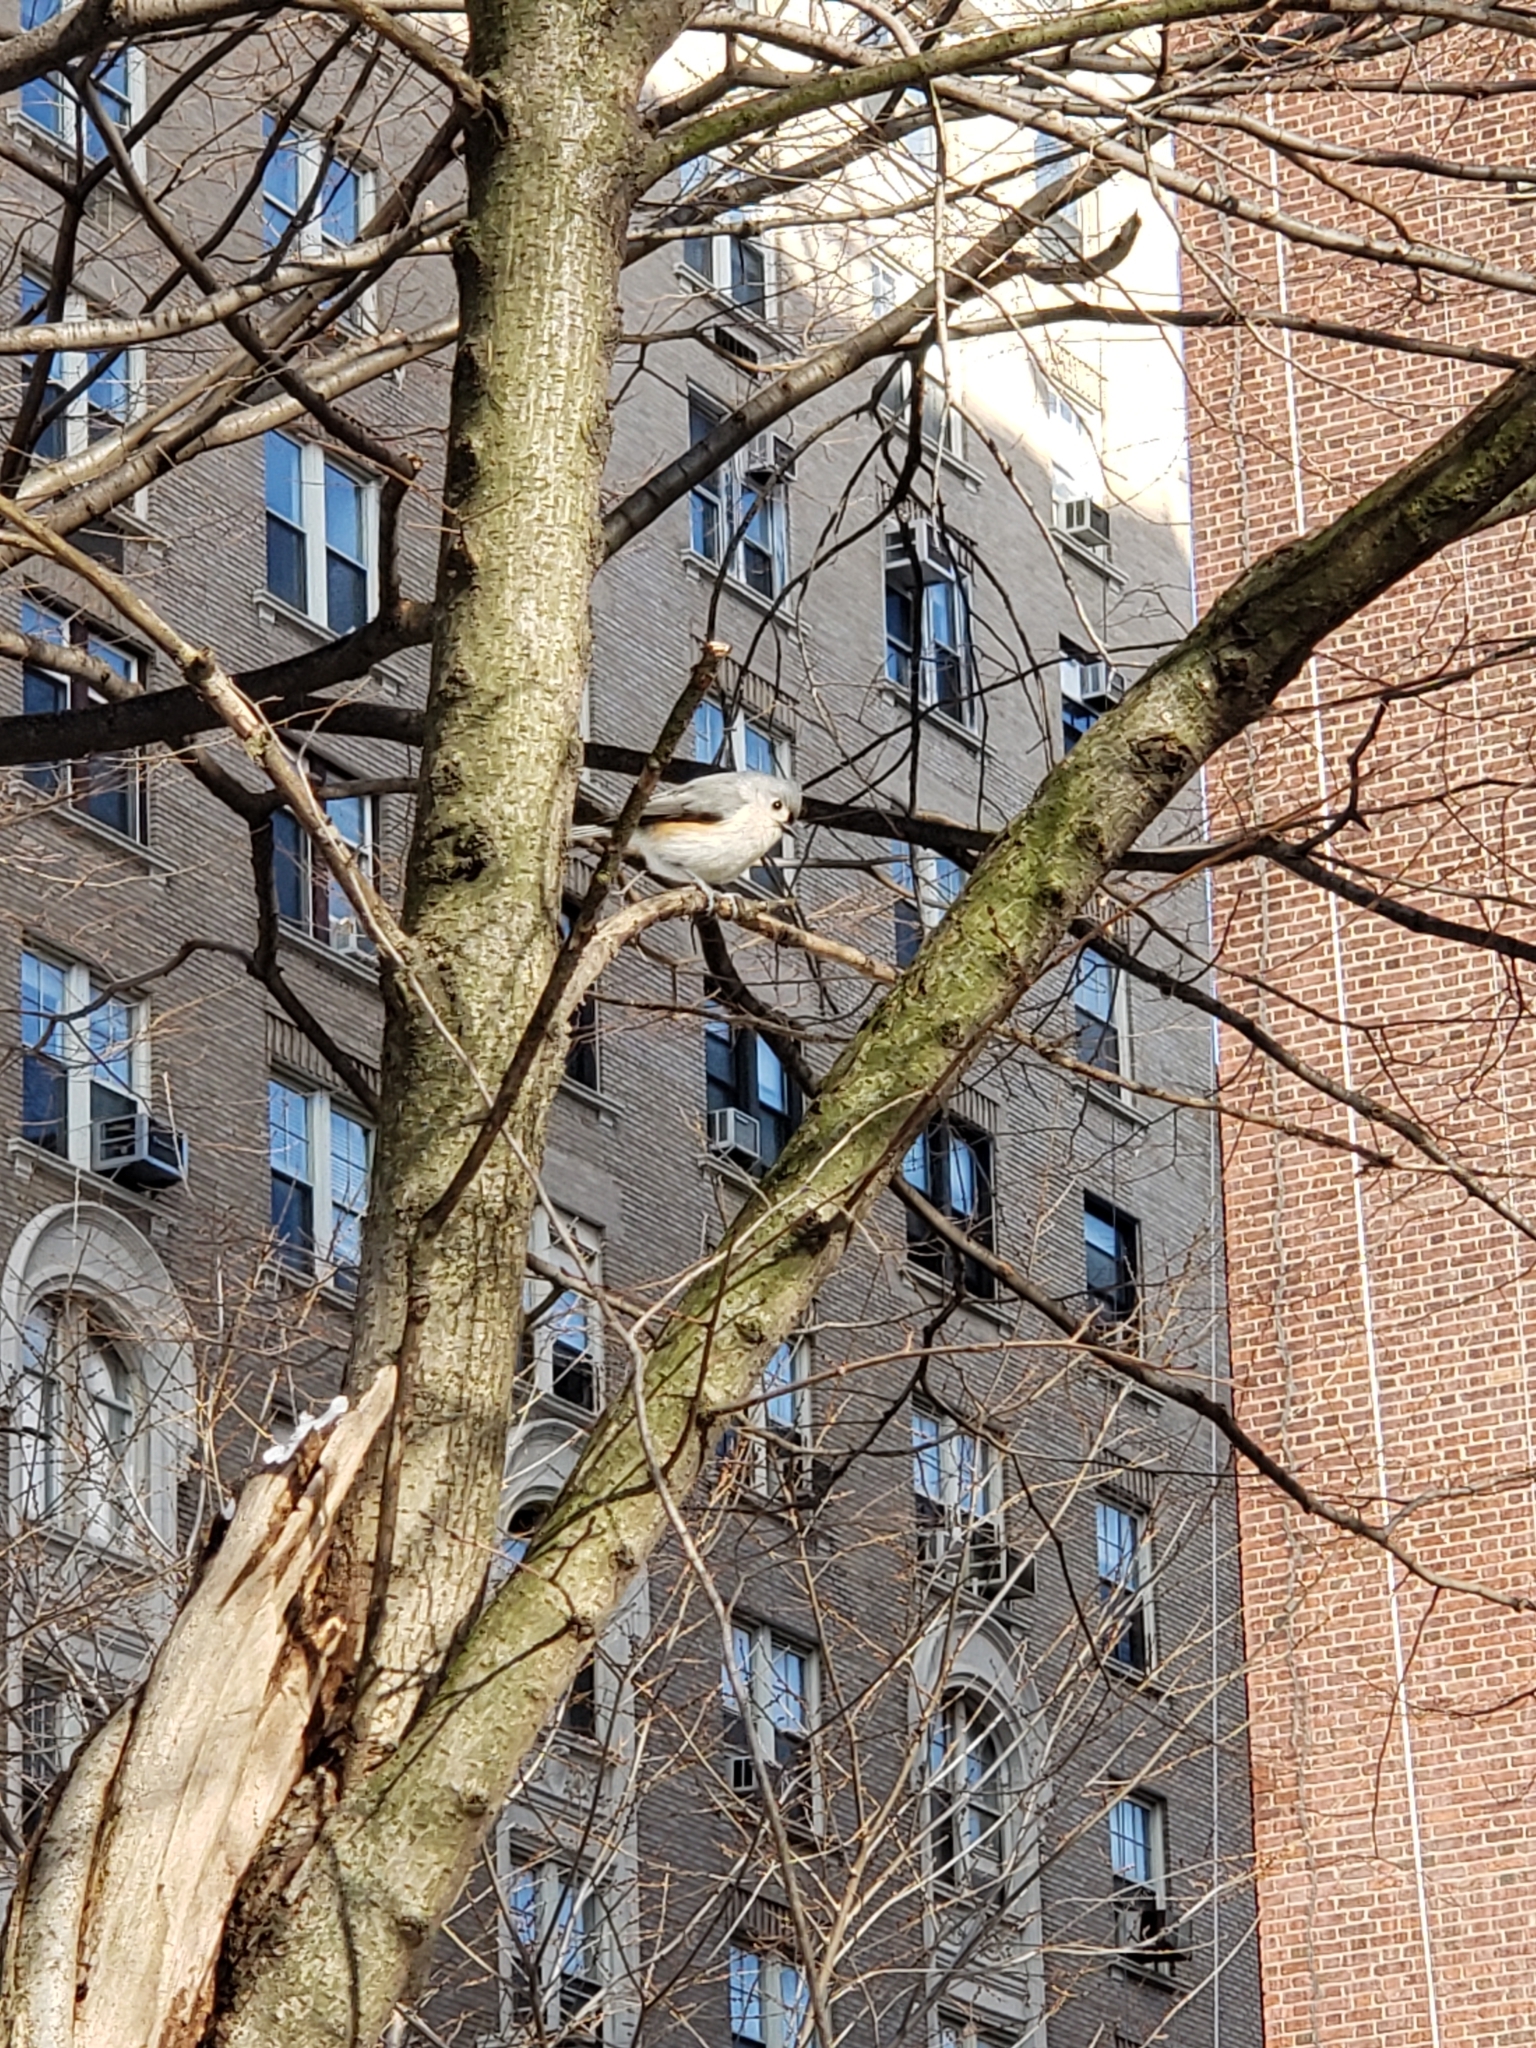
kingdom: Animalia
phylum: Chordata
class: Aves
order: Passeriformes
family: Paridae
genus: Baeolophus
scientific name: Baeolophus bicolor
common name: Tufted titmouse
